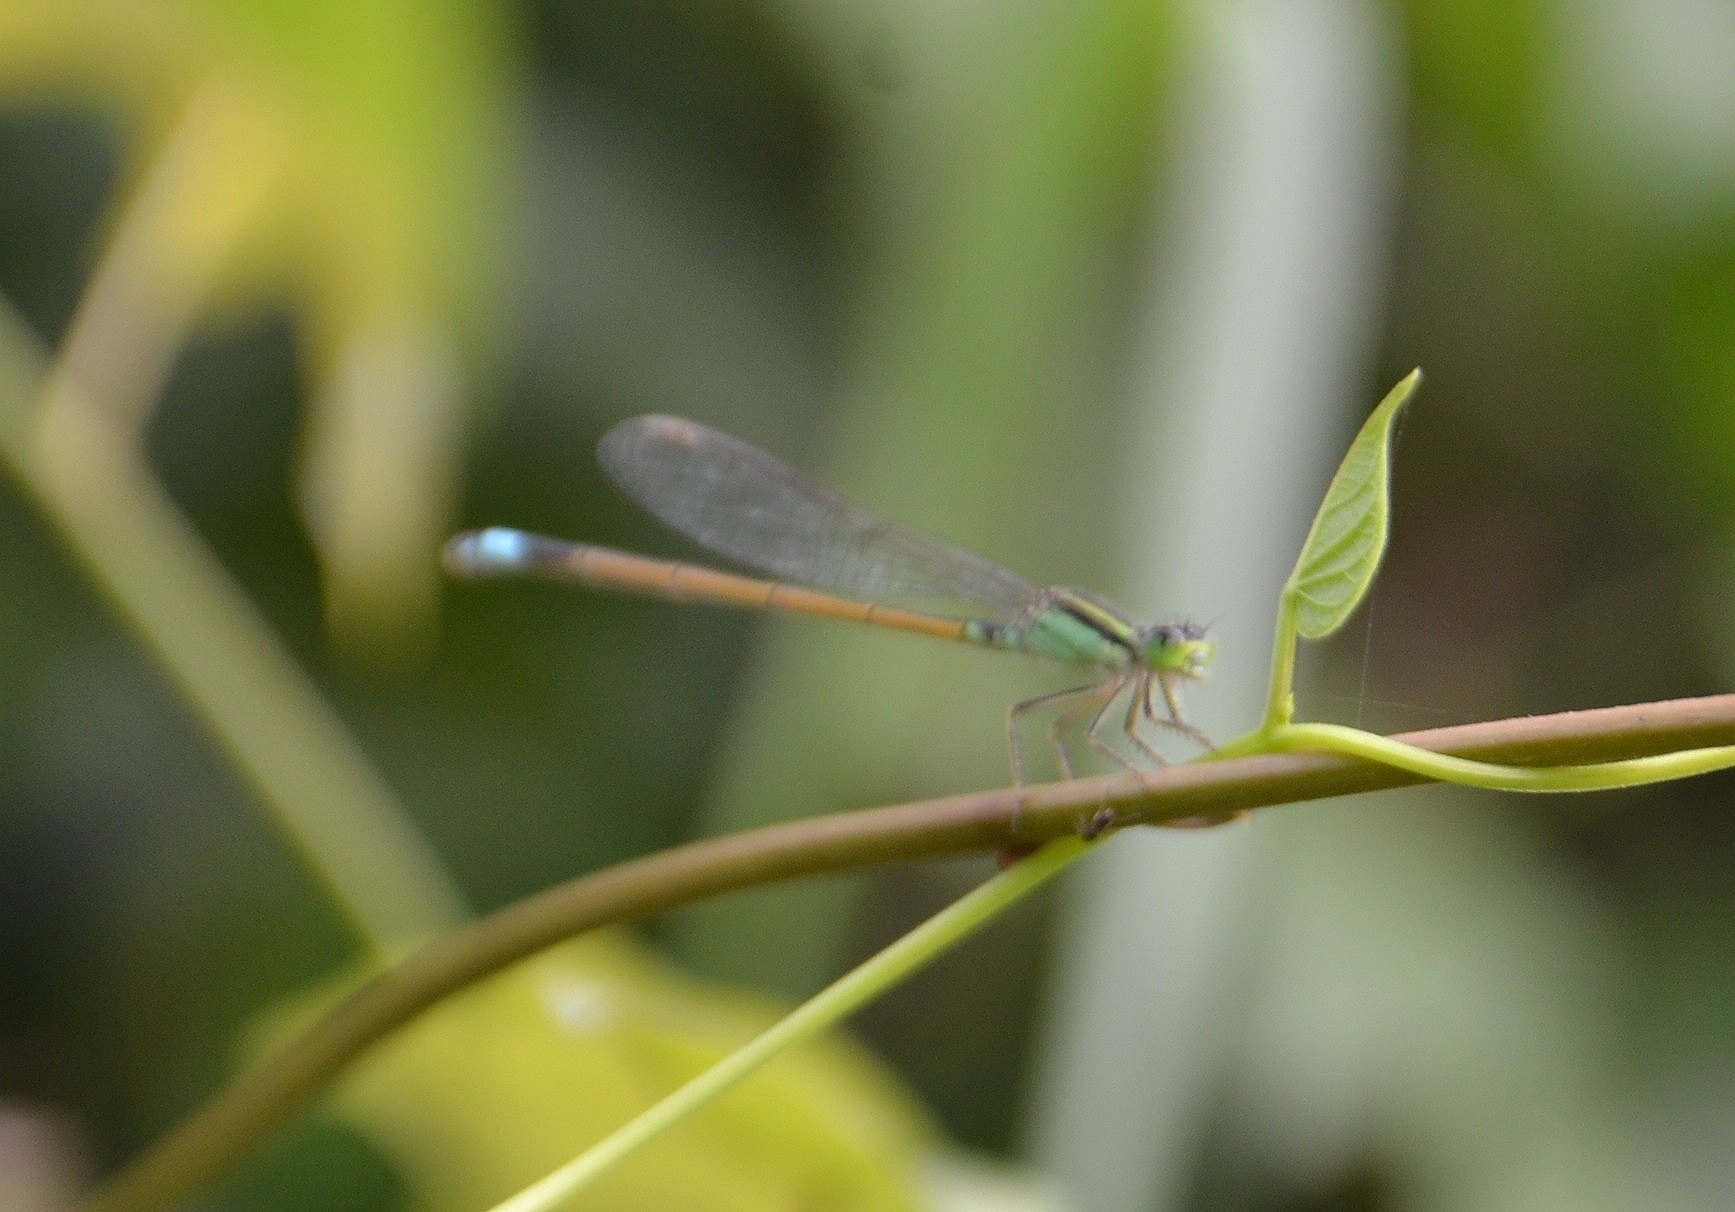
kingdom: Animalia
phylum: Arthropoda
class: Insecta
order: Odonata
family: Coenagrionidae
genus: Ischnura
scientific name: Ischnura senegalensis
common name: Tropical bluetail
